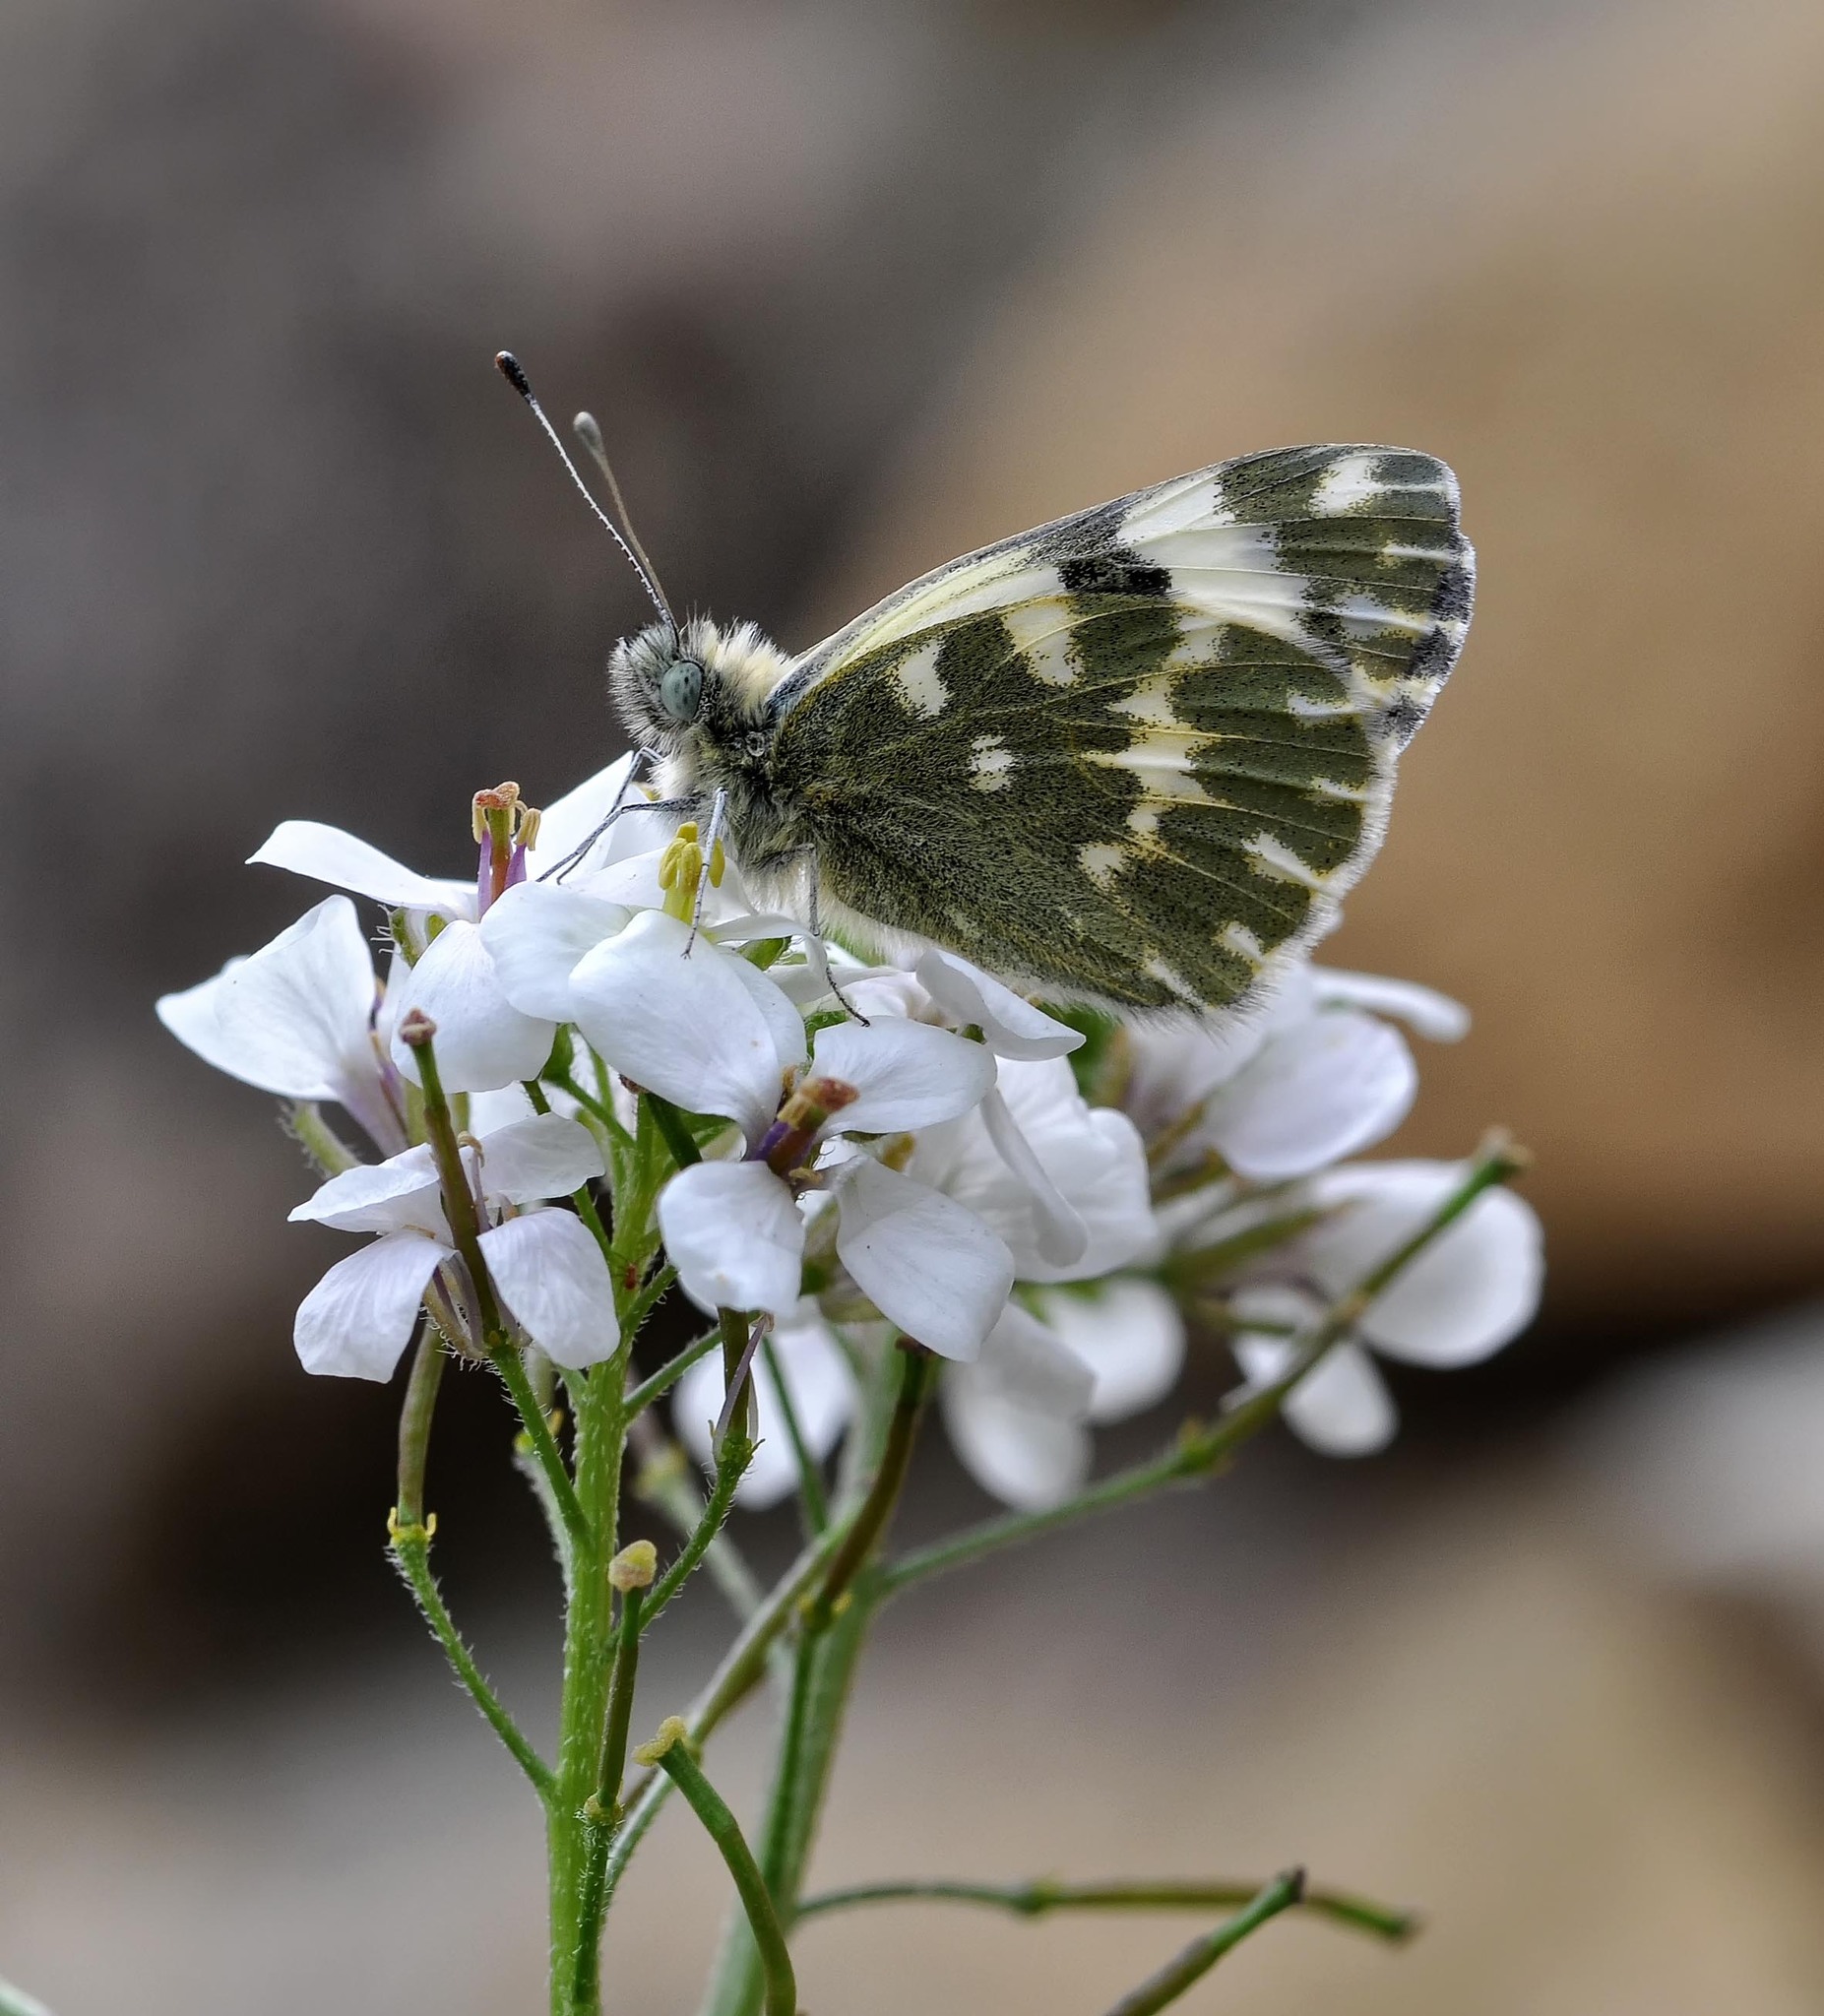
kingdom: Animalia
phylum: Arthropoda
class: Insecta
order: Lepidoptera
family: Pieridae
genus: Pontia
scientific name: Pontia daplidice
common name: Bath white
